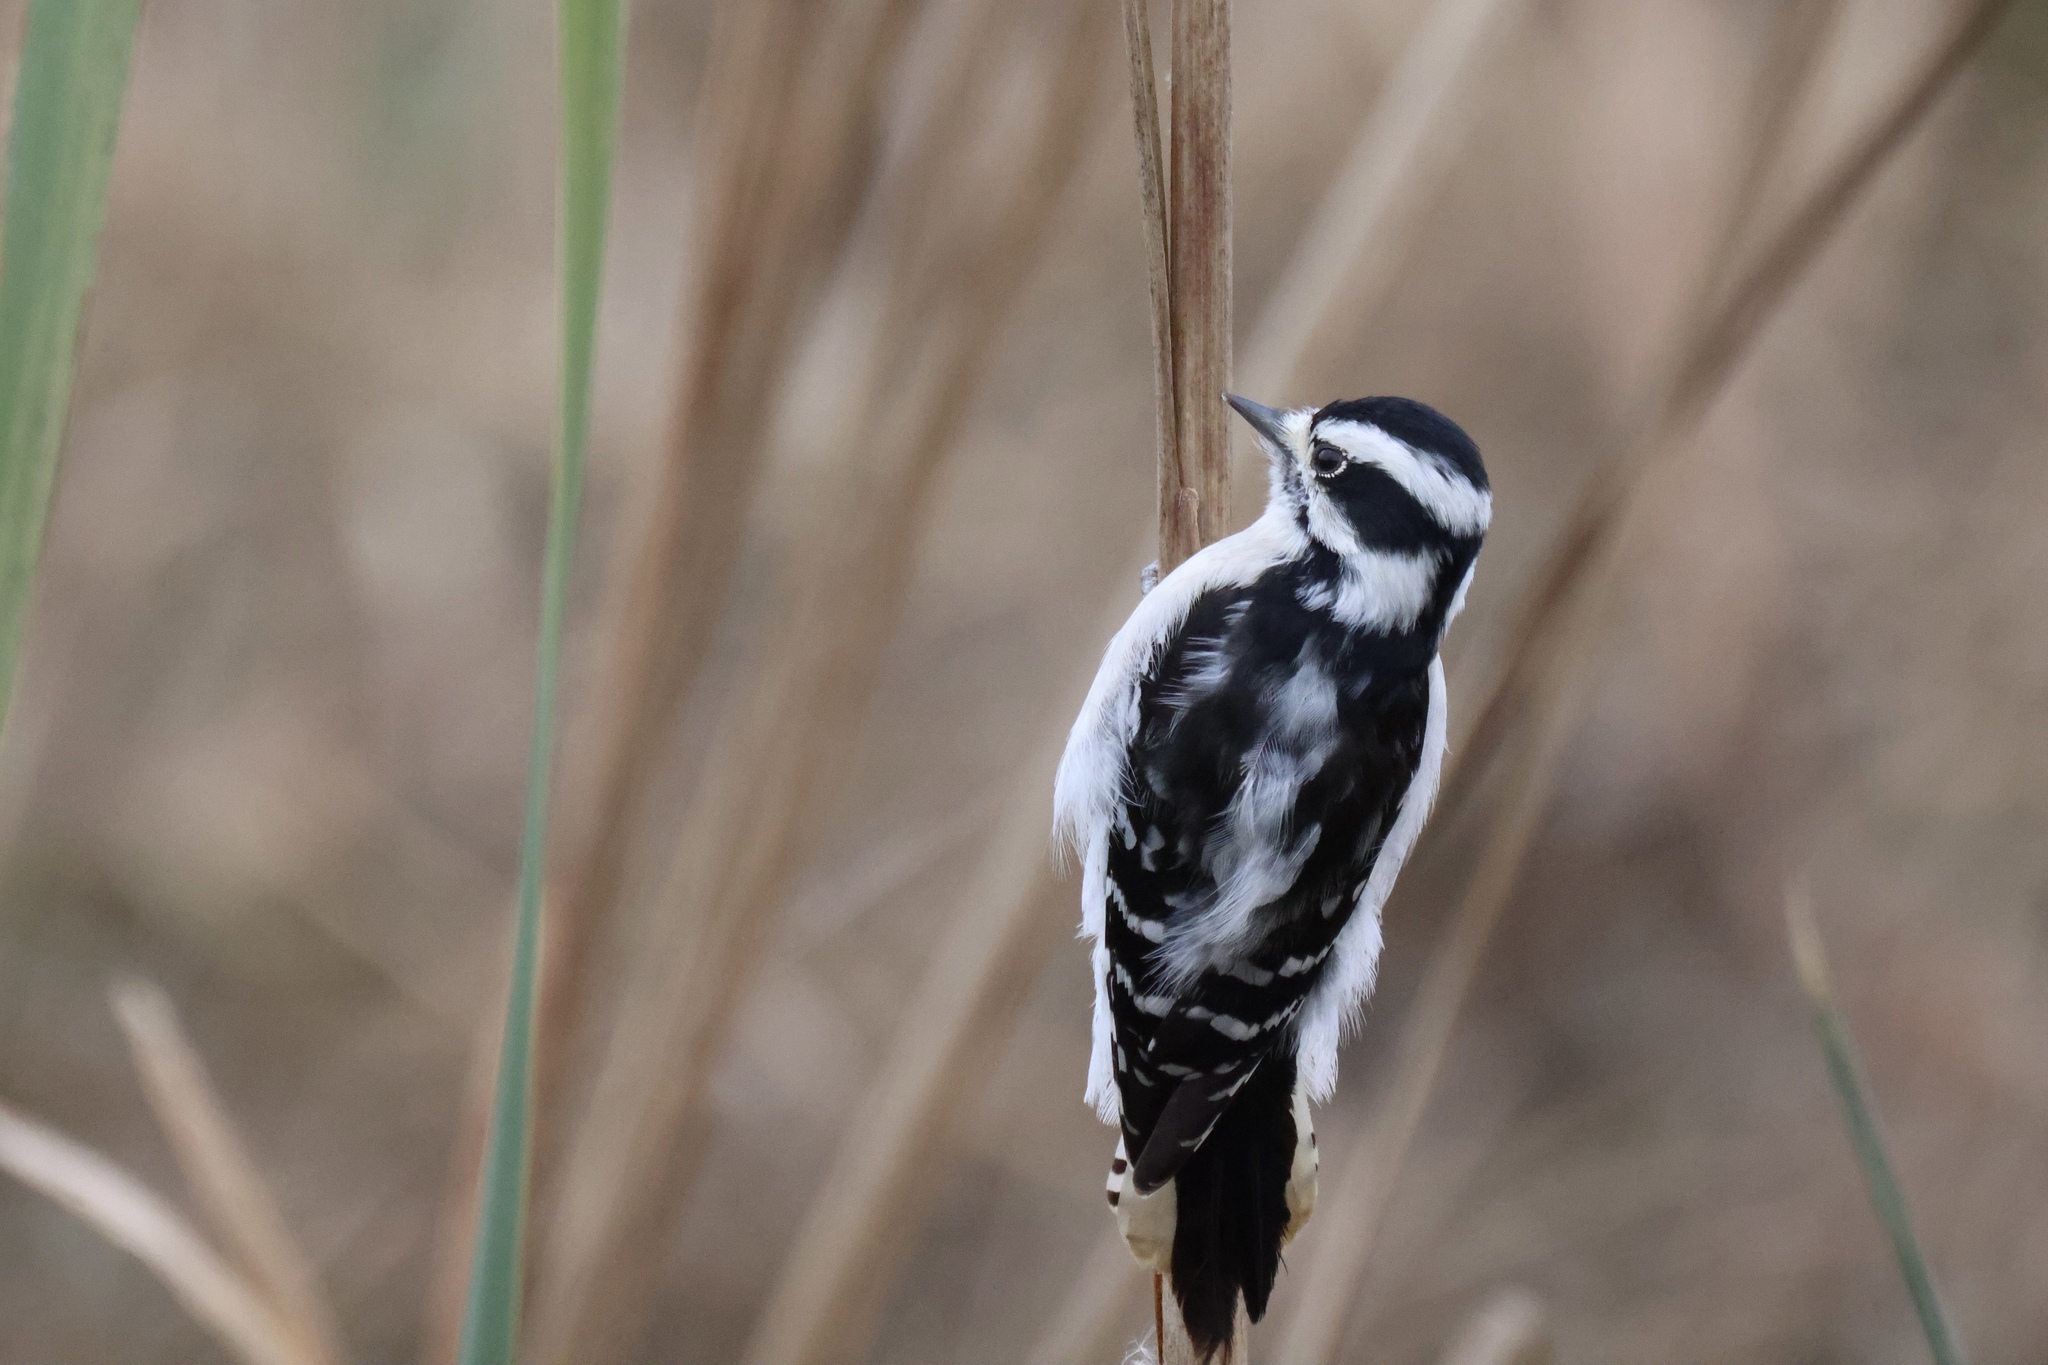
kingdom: Animalia
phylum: Chordata
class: Aves
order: Piciformes
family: Picidae
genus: Dryobates
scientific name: Dryobates pubescens
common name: Downy woodpecker
